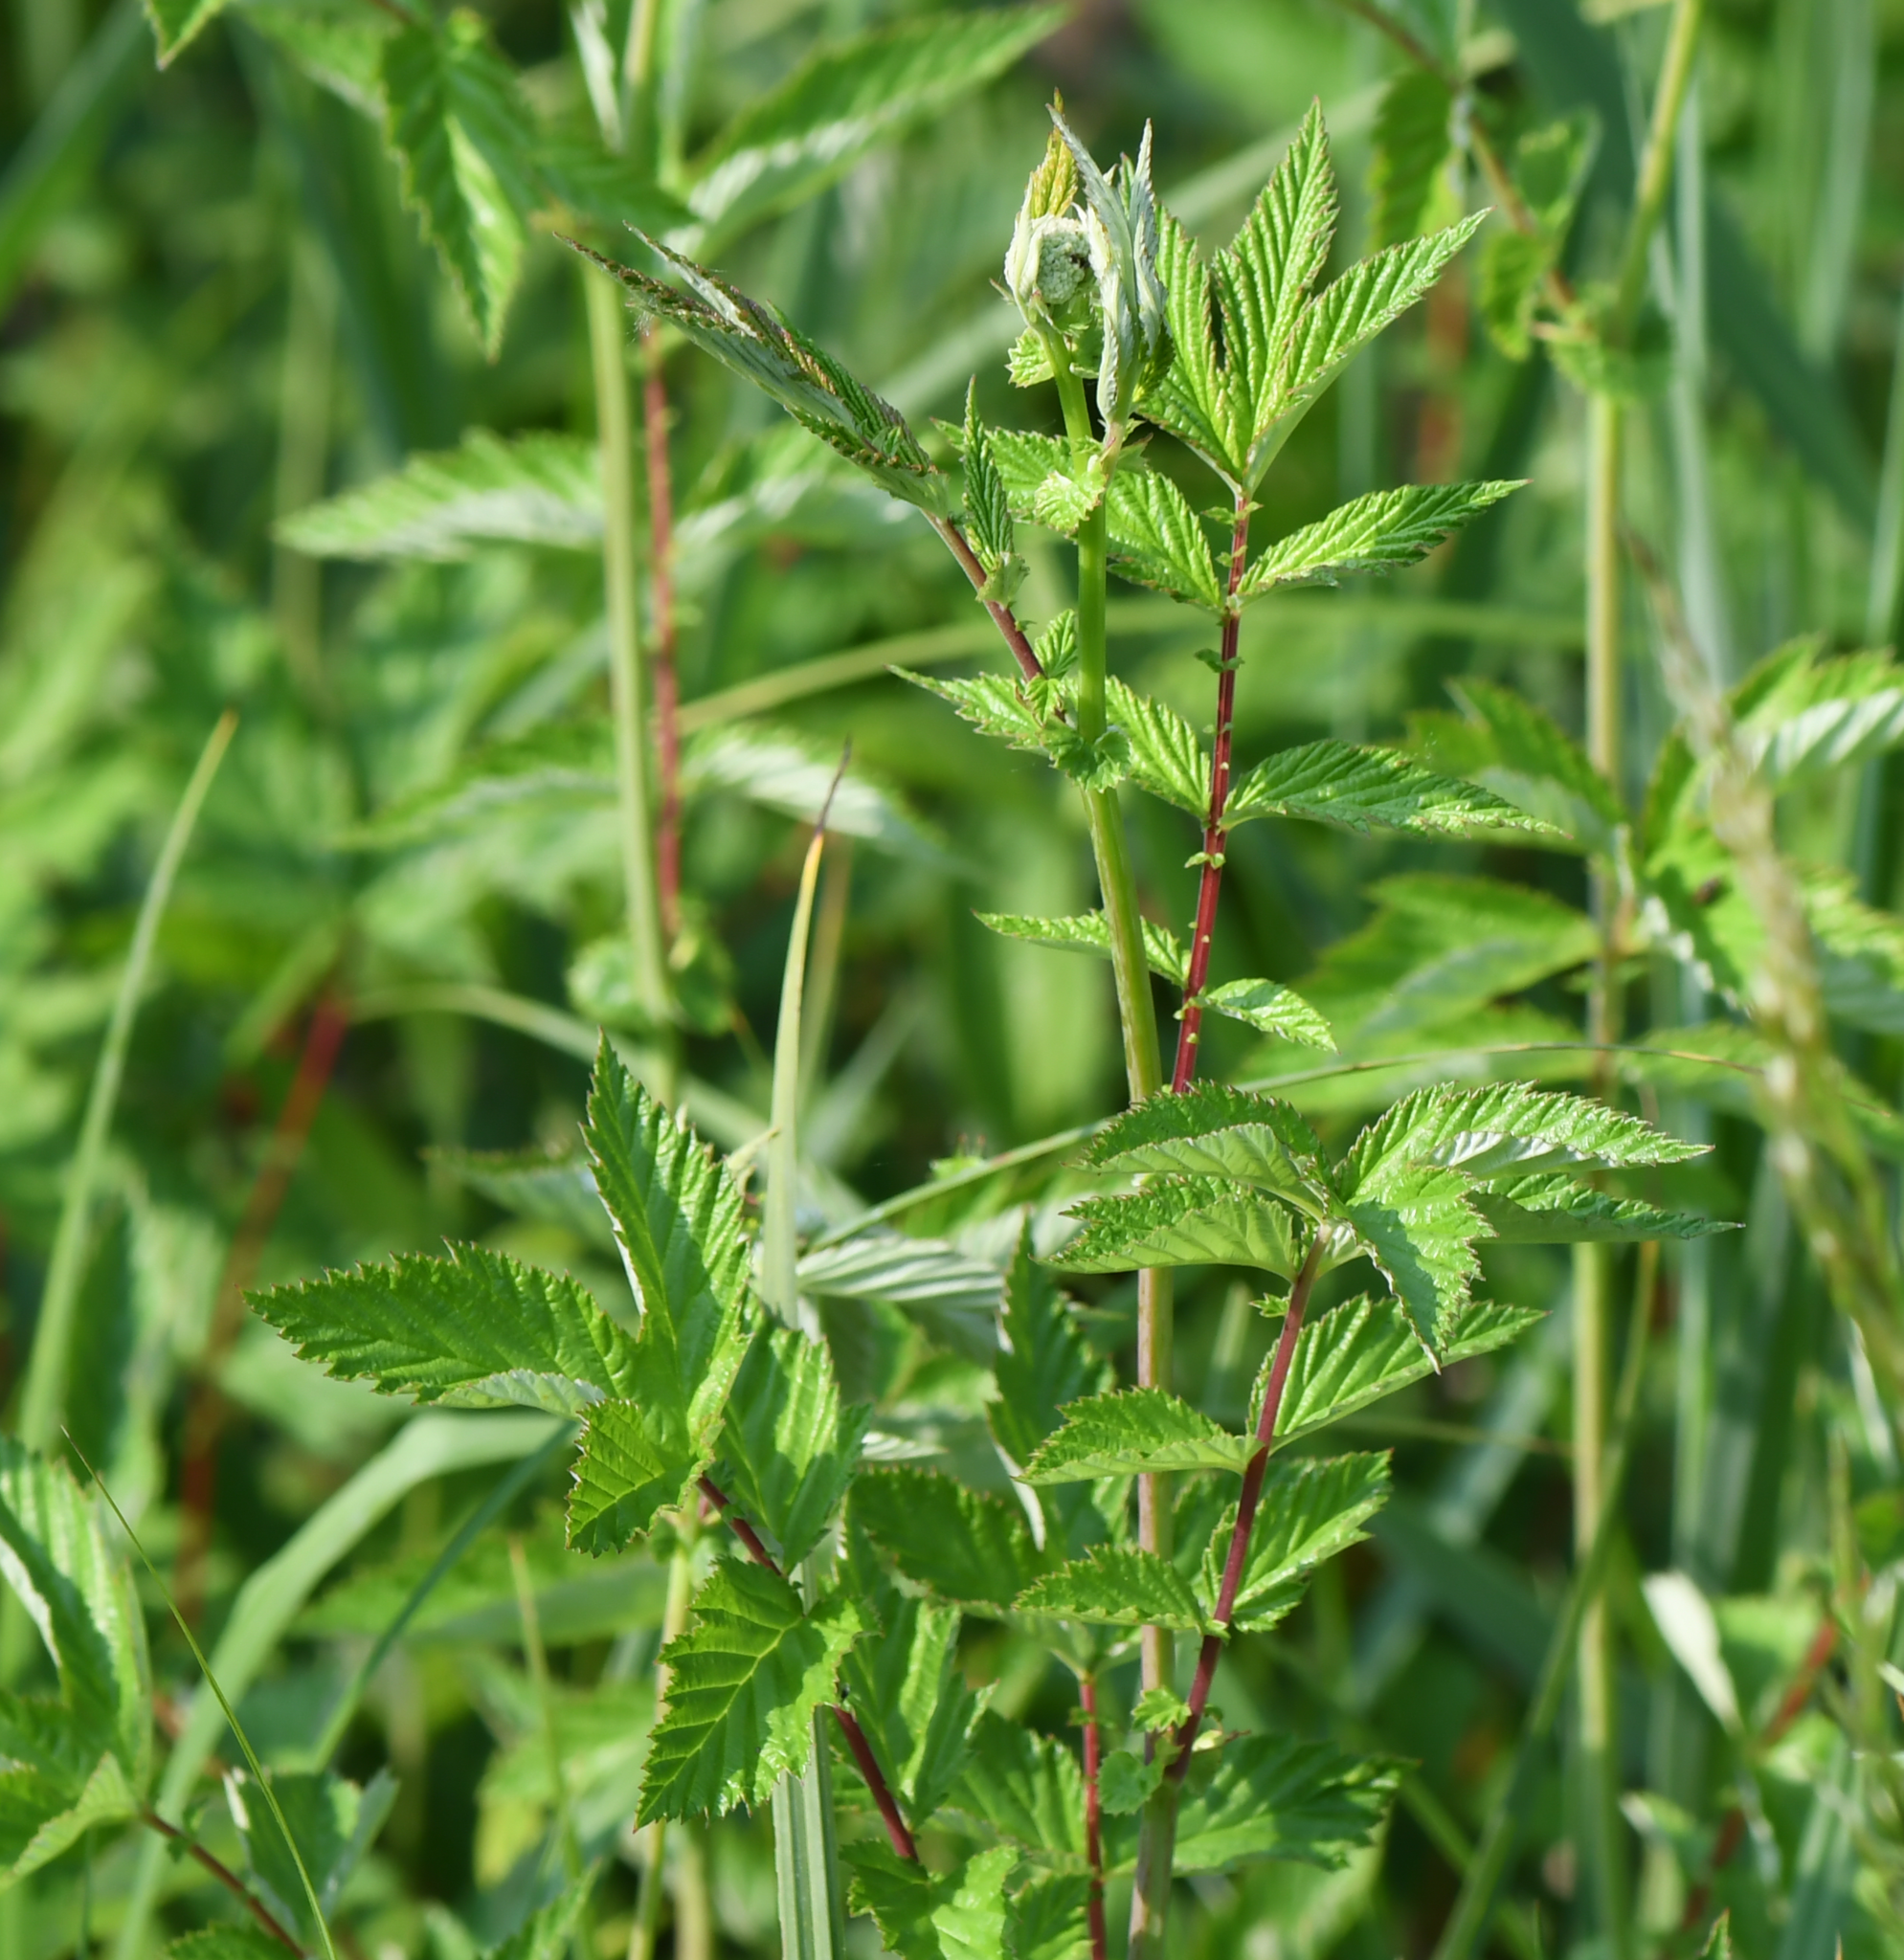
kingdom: Plantae
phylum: Tracheophyta
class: Magnoliopsida
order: Rosales
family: Rosaceae
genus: Filipendula
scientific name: Filipendula ulmaria
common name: Meadowsweet
